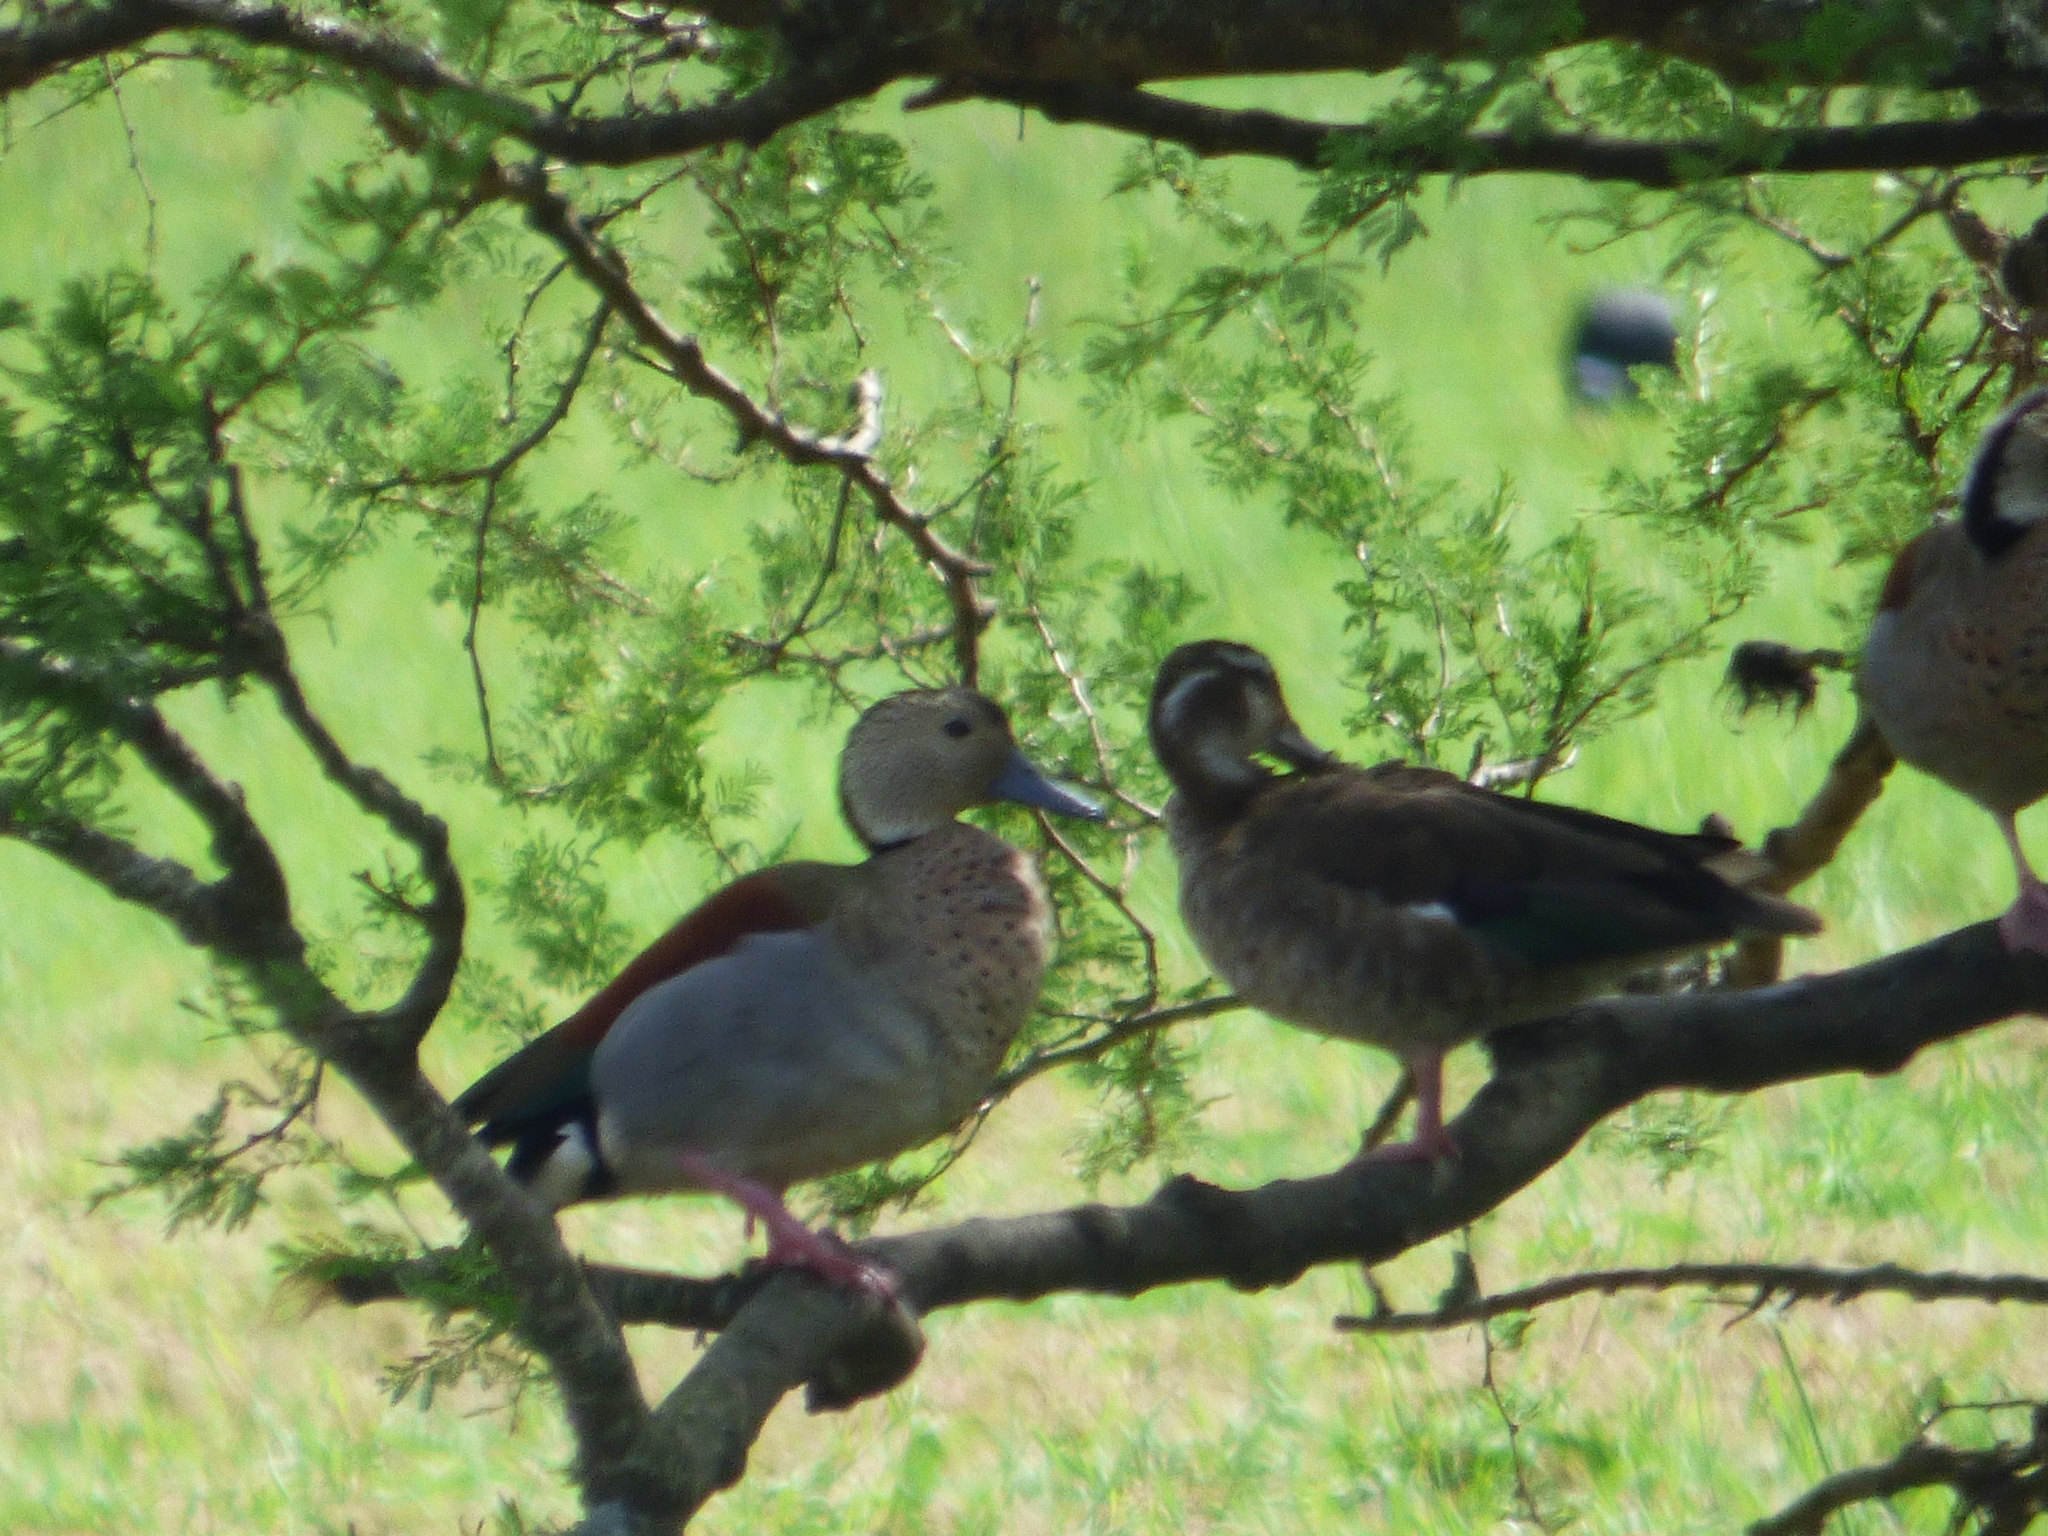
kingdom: Animalia
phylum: Chordata
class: Aves
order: Anseriformes
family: Anatidae
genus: Callonetta
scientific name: Callonetta leucophrys
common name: Ringed teal
